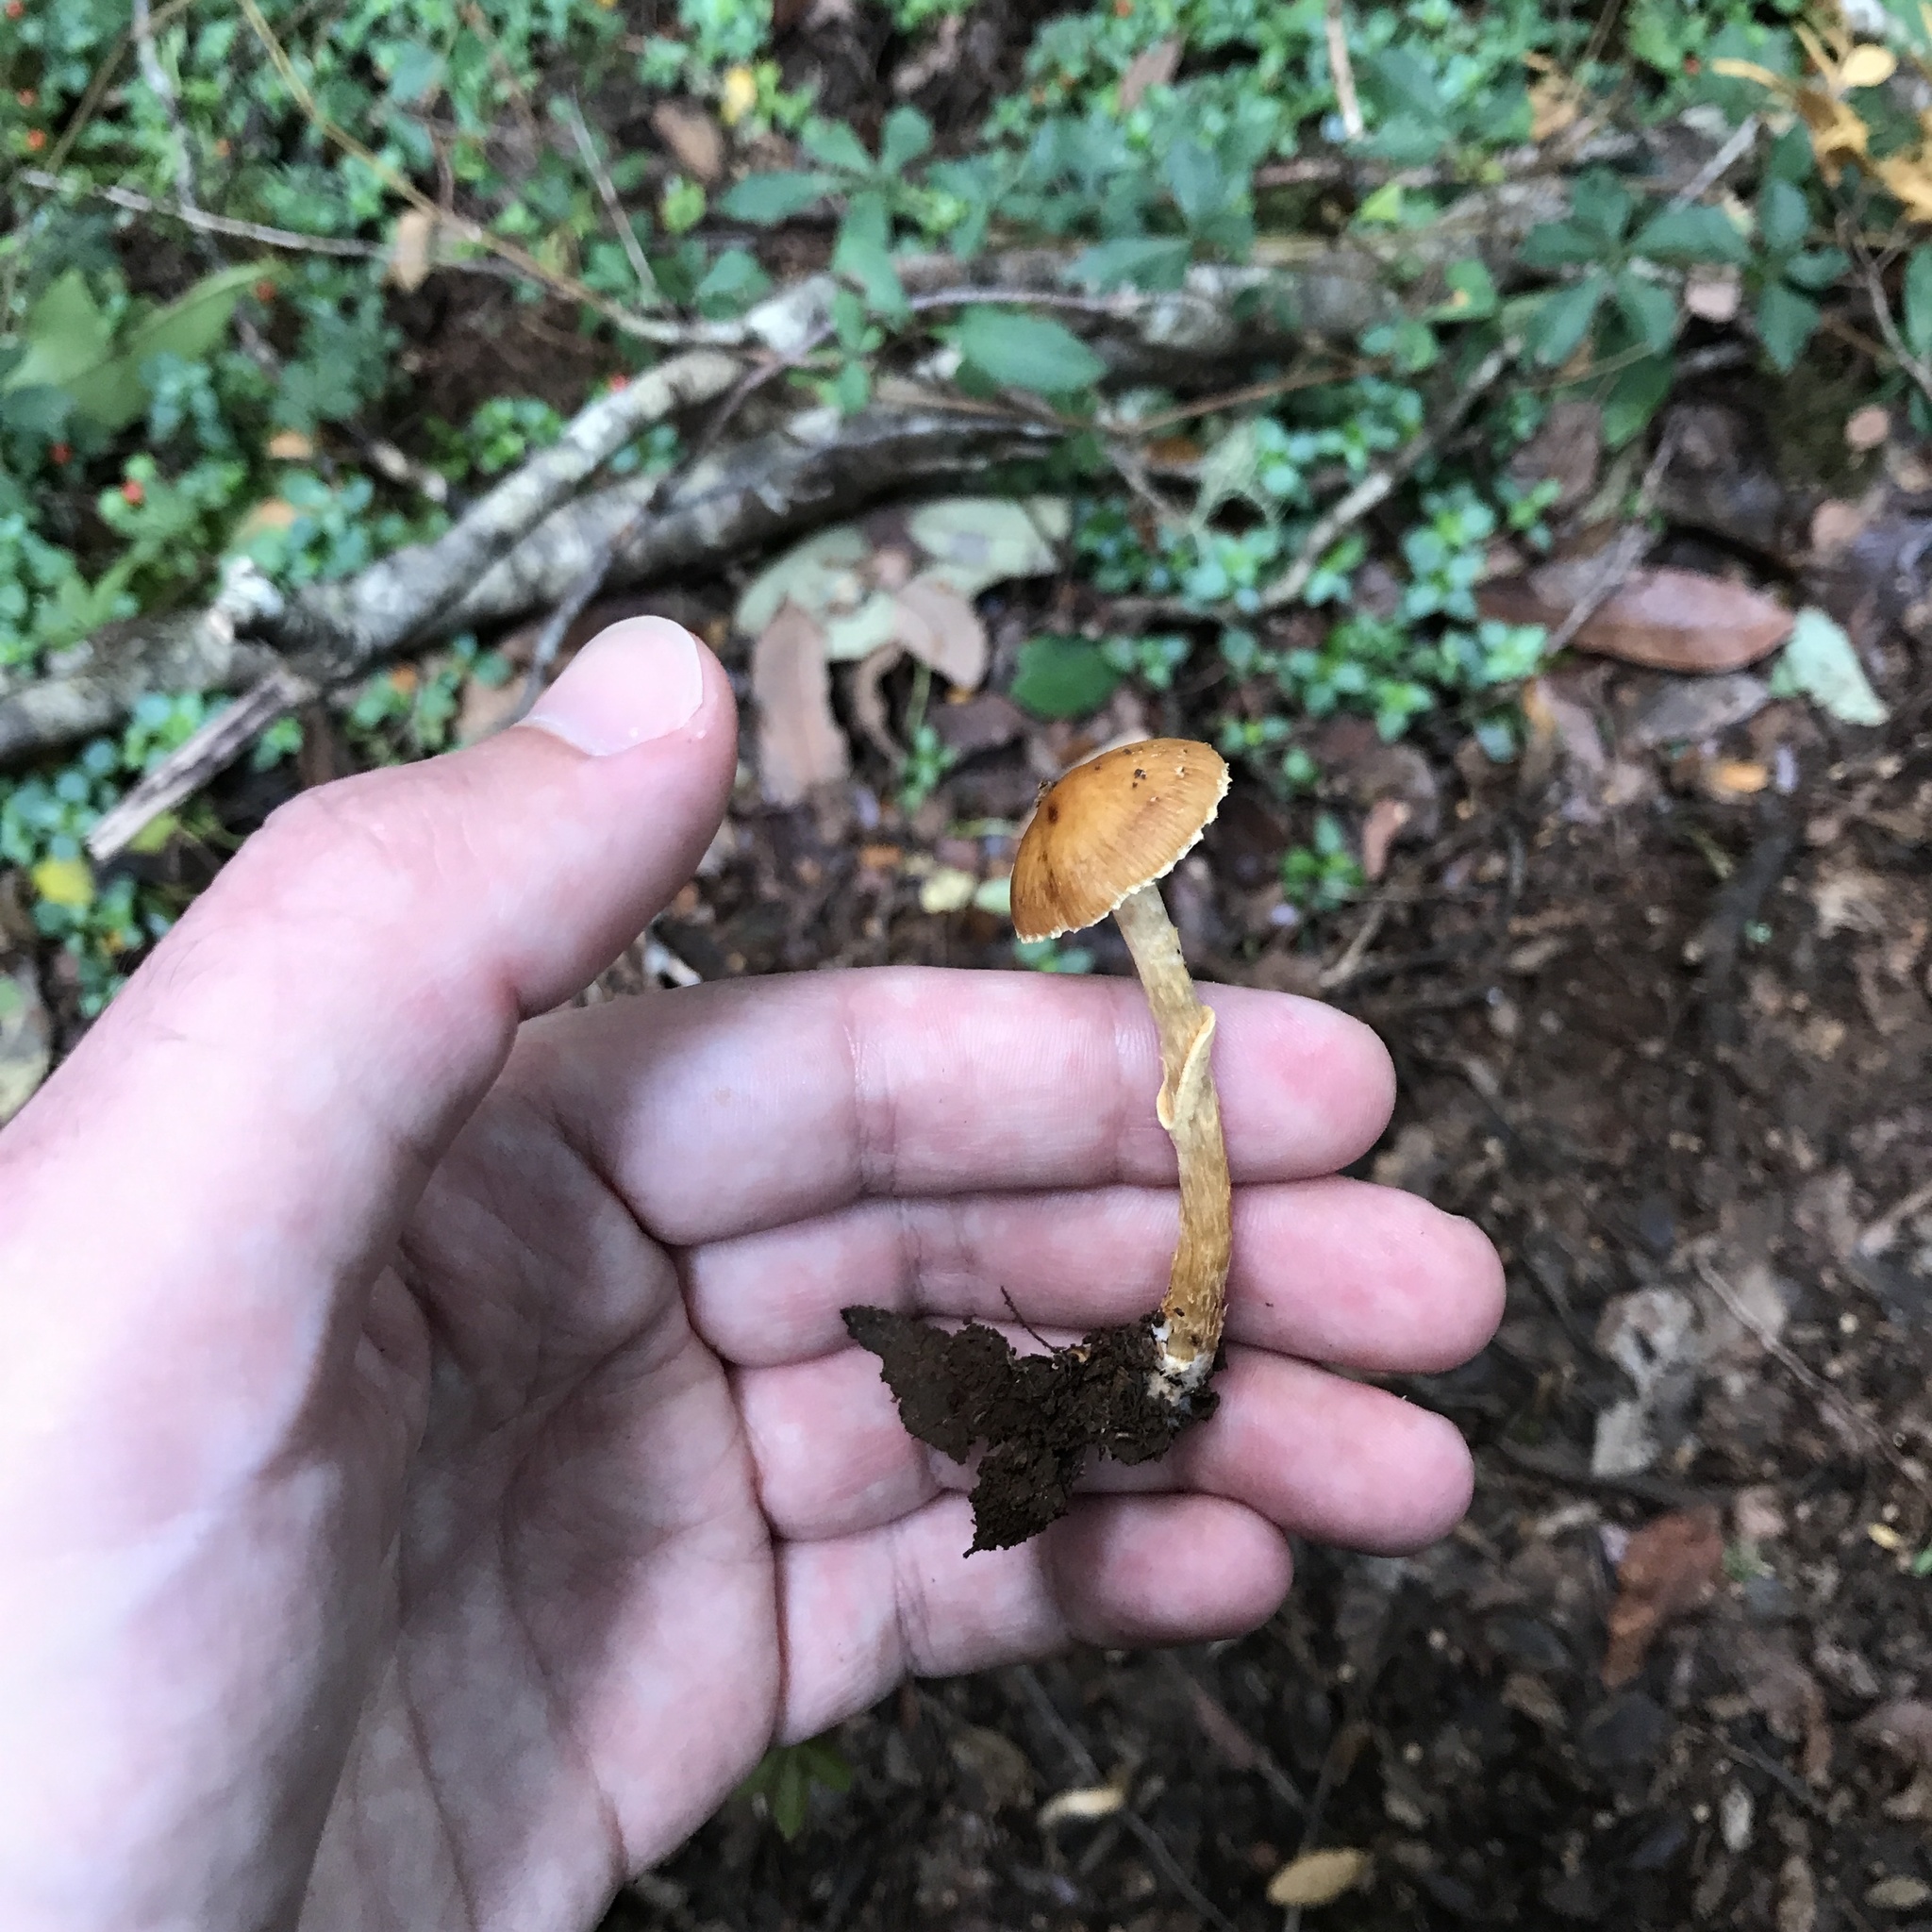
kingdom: Fungi
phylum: Basidiomycota
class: Agaricomycetes
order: Agaricales
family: Bolbitiaceae
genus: Descolea
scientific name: Descolea antarctica
